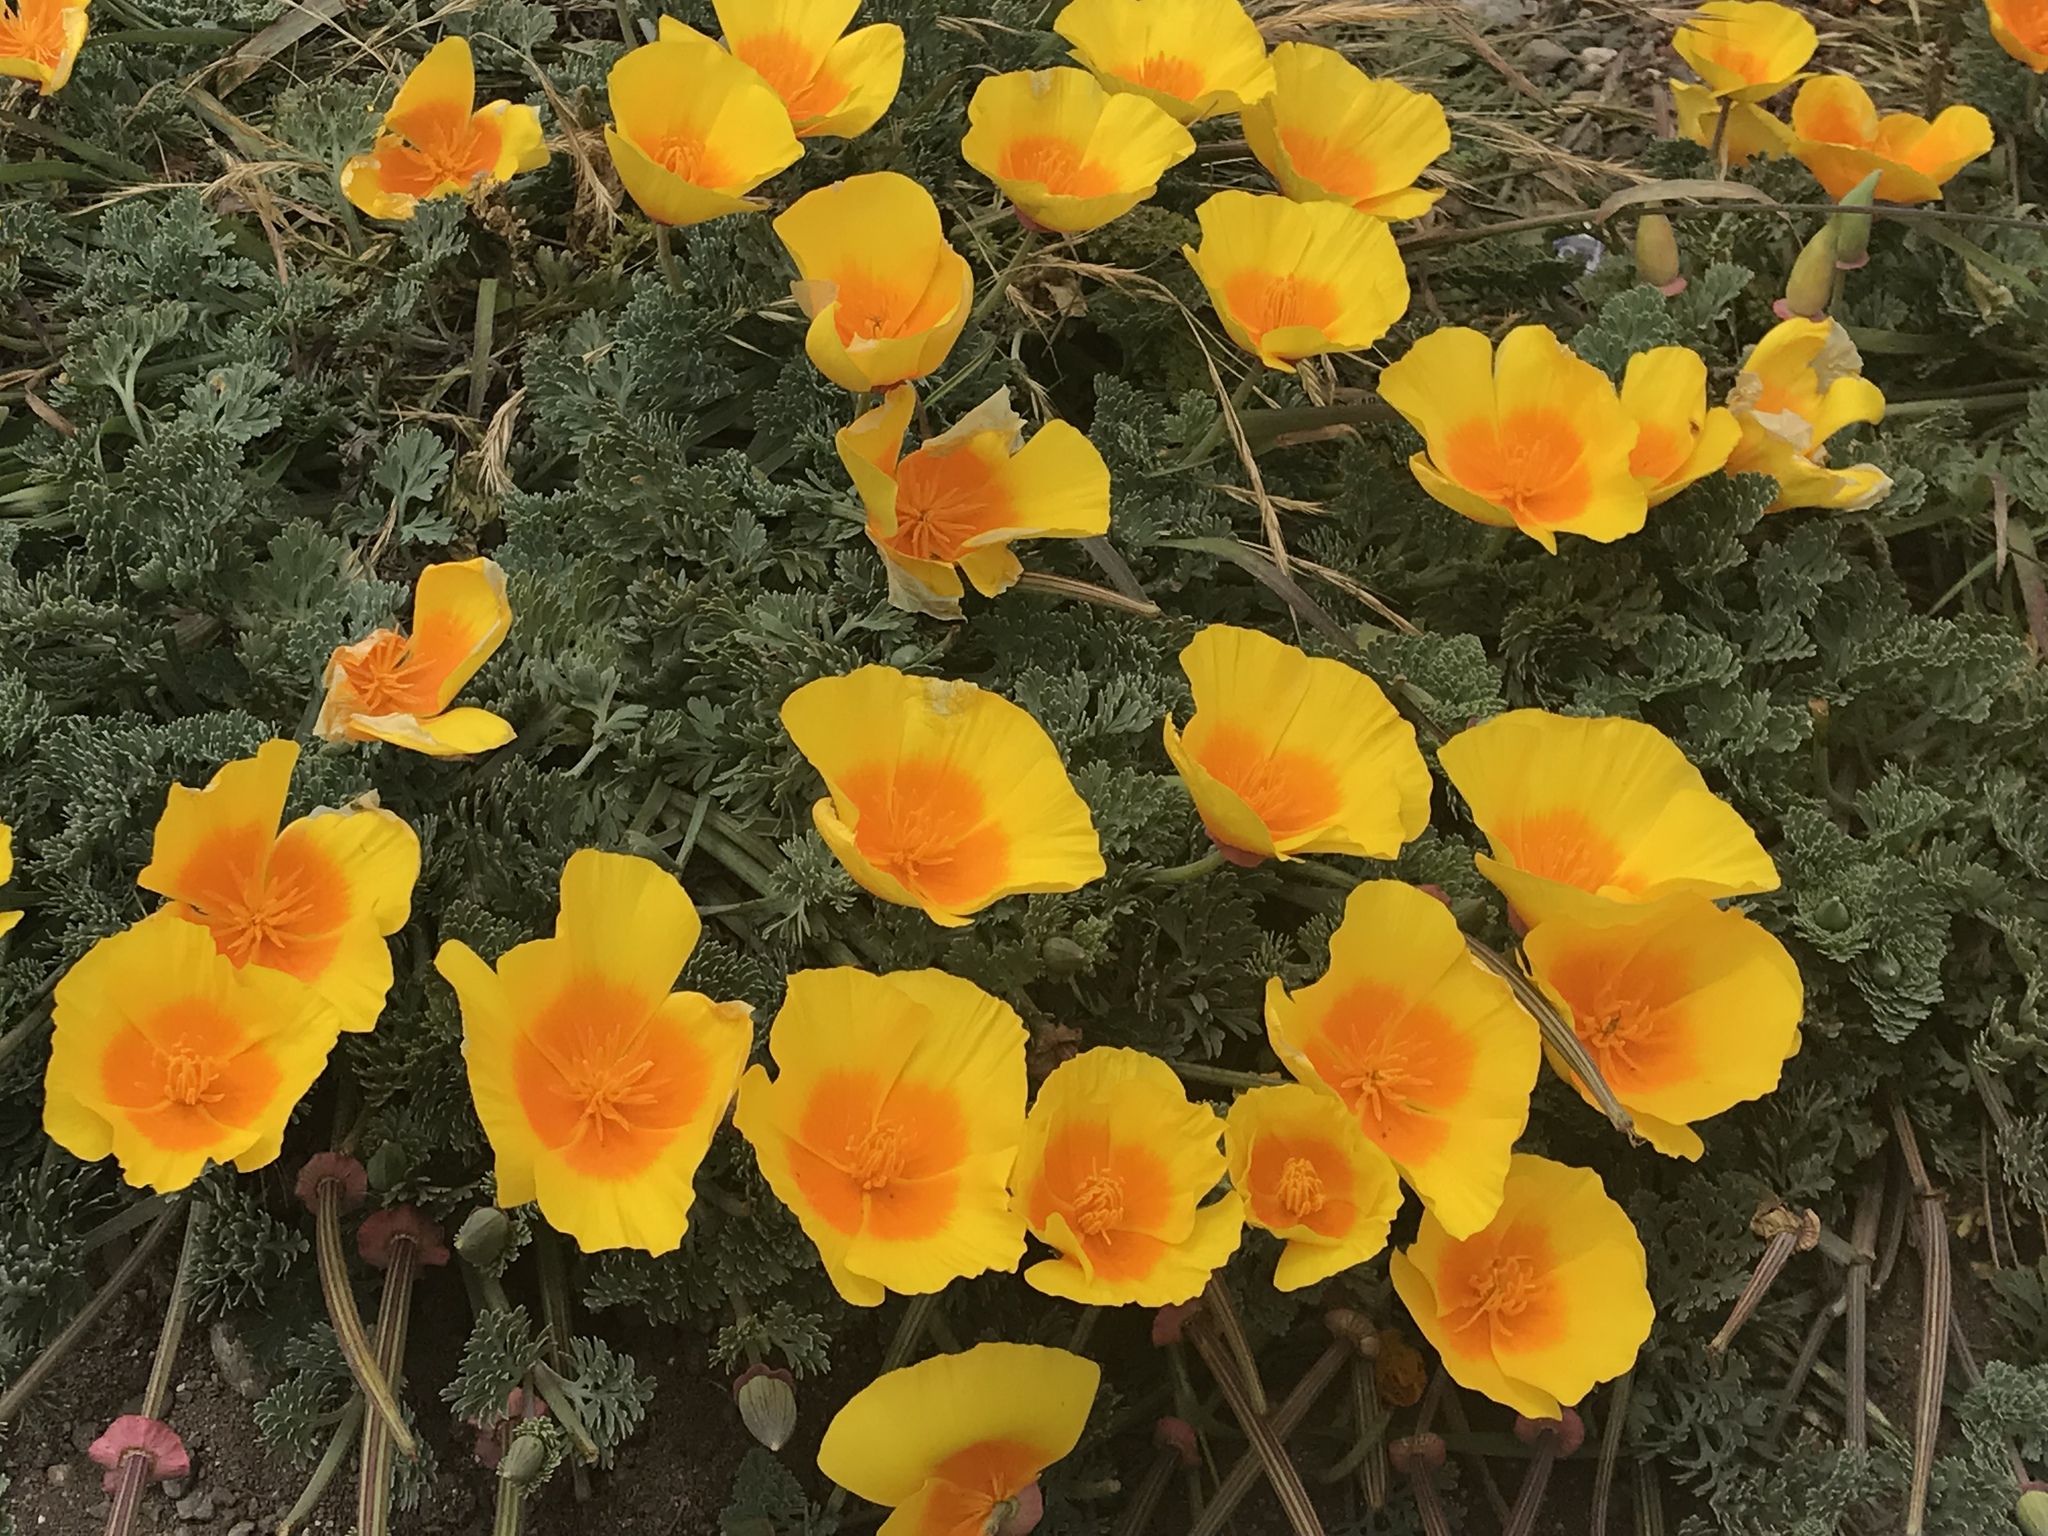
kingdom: Plantae
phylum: Tracheophyta
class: Magnoliopsida
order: Ranunculales
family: Papaveraceae
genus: Eschscholzia
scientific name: Eschscholzia californica
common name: California poppy
